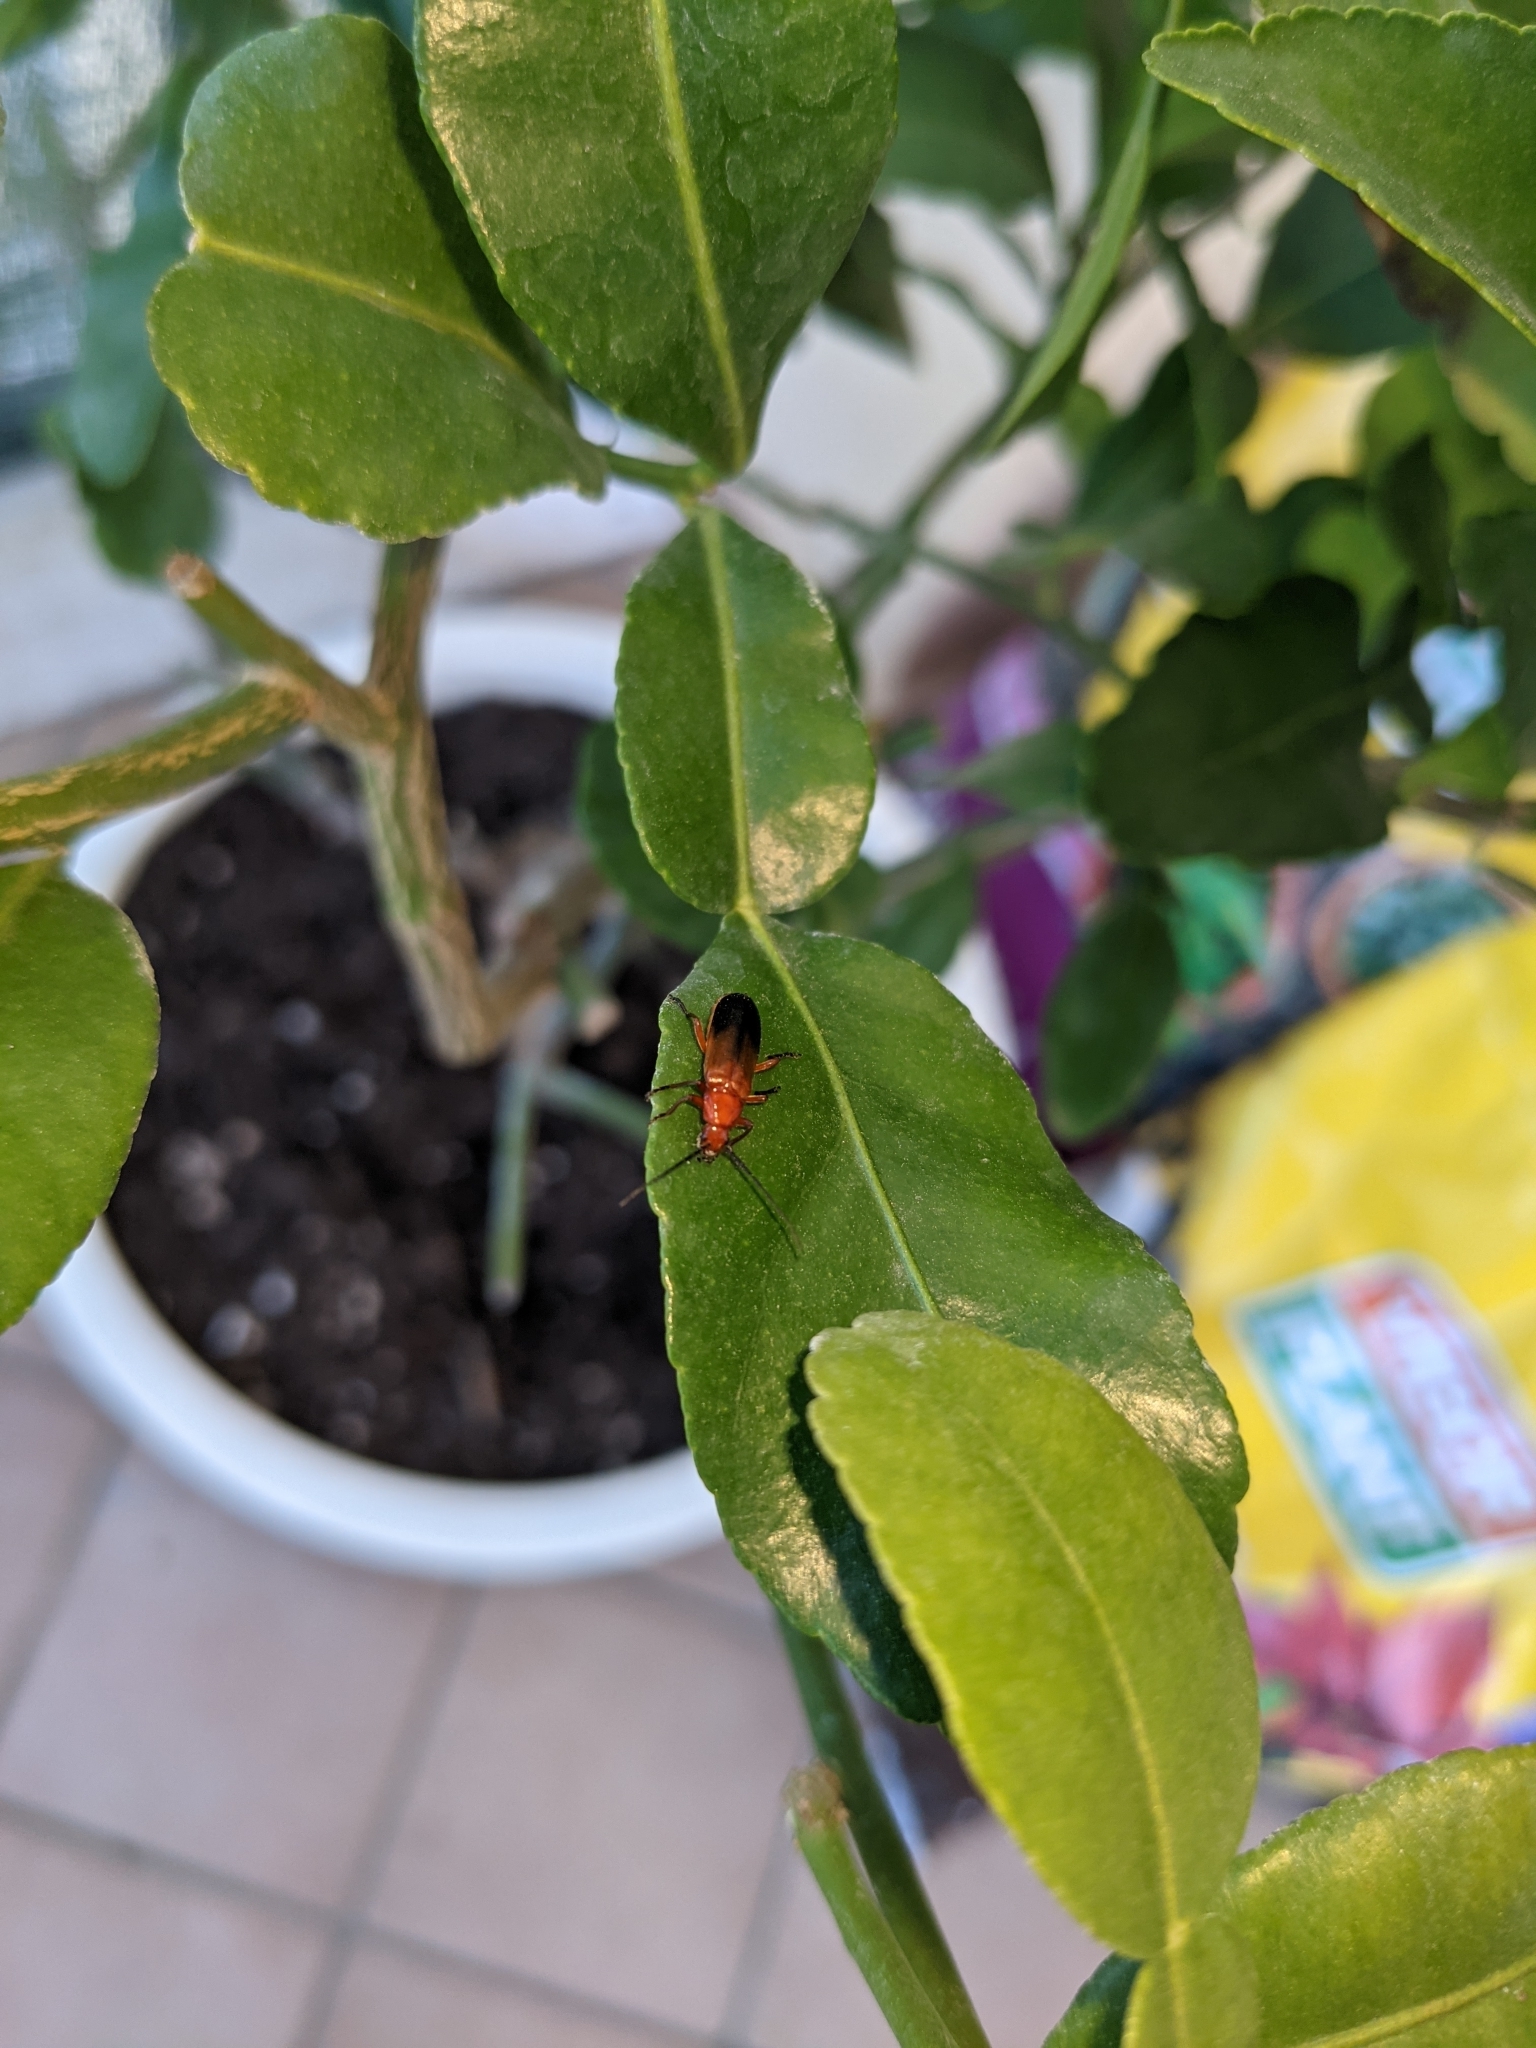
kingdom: Animalia
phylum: Arthropoda
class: Insecta
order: Coleoptera
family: Cantharidae
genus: Rhagonycha
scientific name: Rhagonycha fulva
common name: Common red soldier beetle
